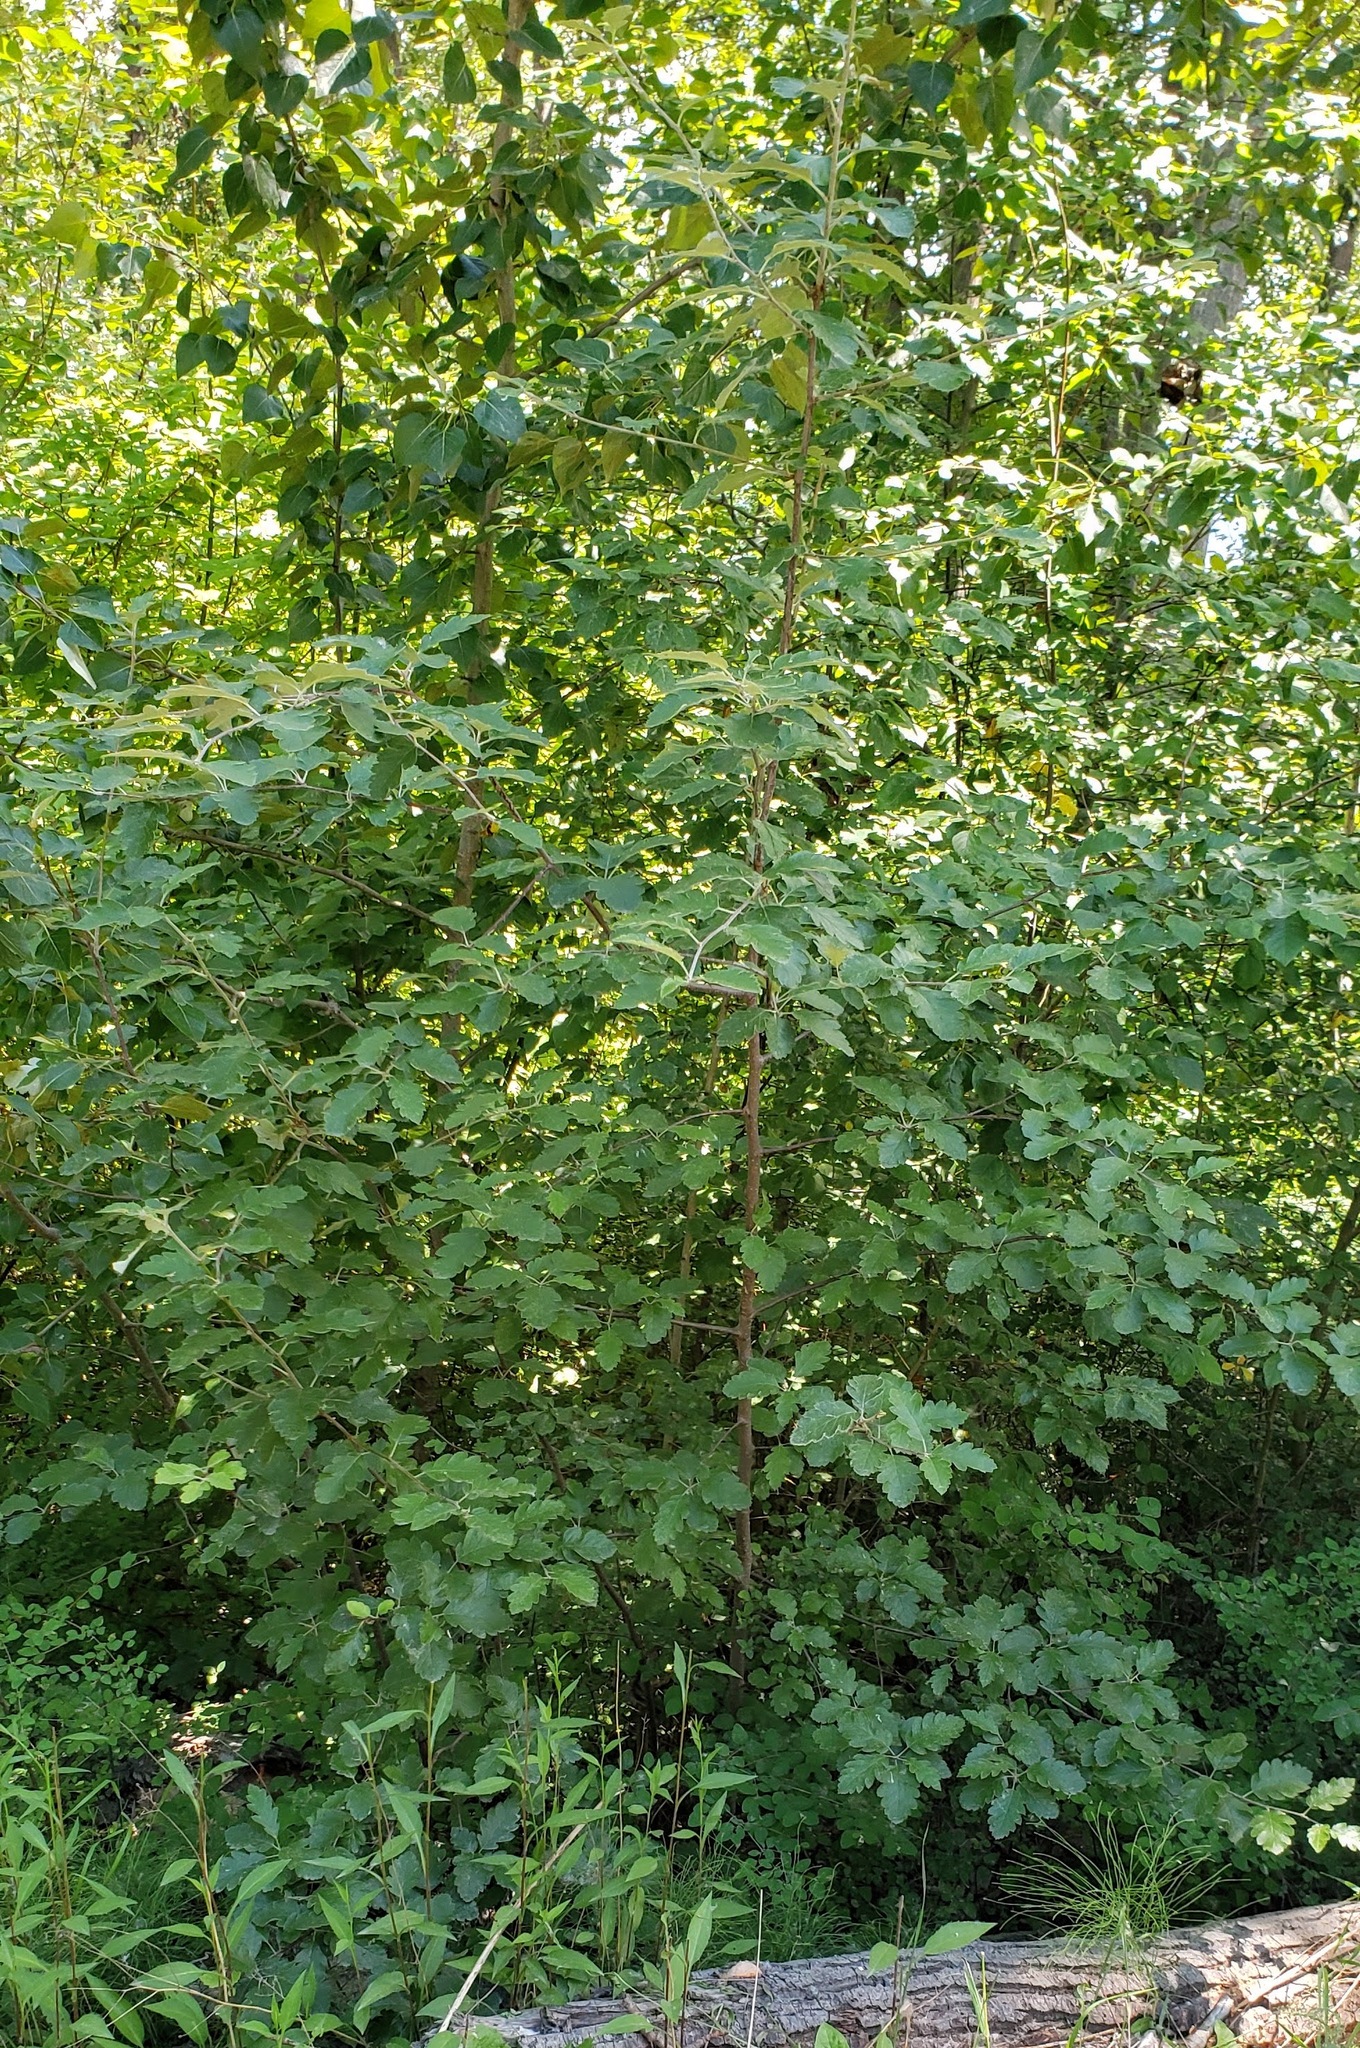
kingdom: Plantae
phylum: Tracheophyta
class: Magnoliopsida
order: Rosales
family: Rosaceae
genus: Scandosorbus
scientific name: Scandosorbus intermedia
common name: Swedish whitebeam
